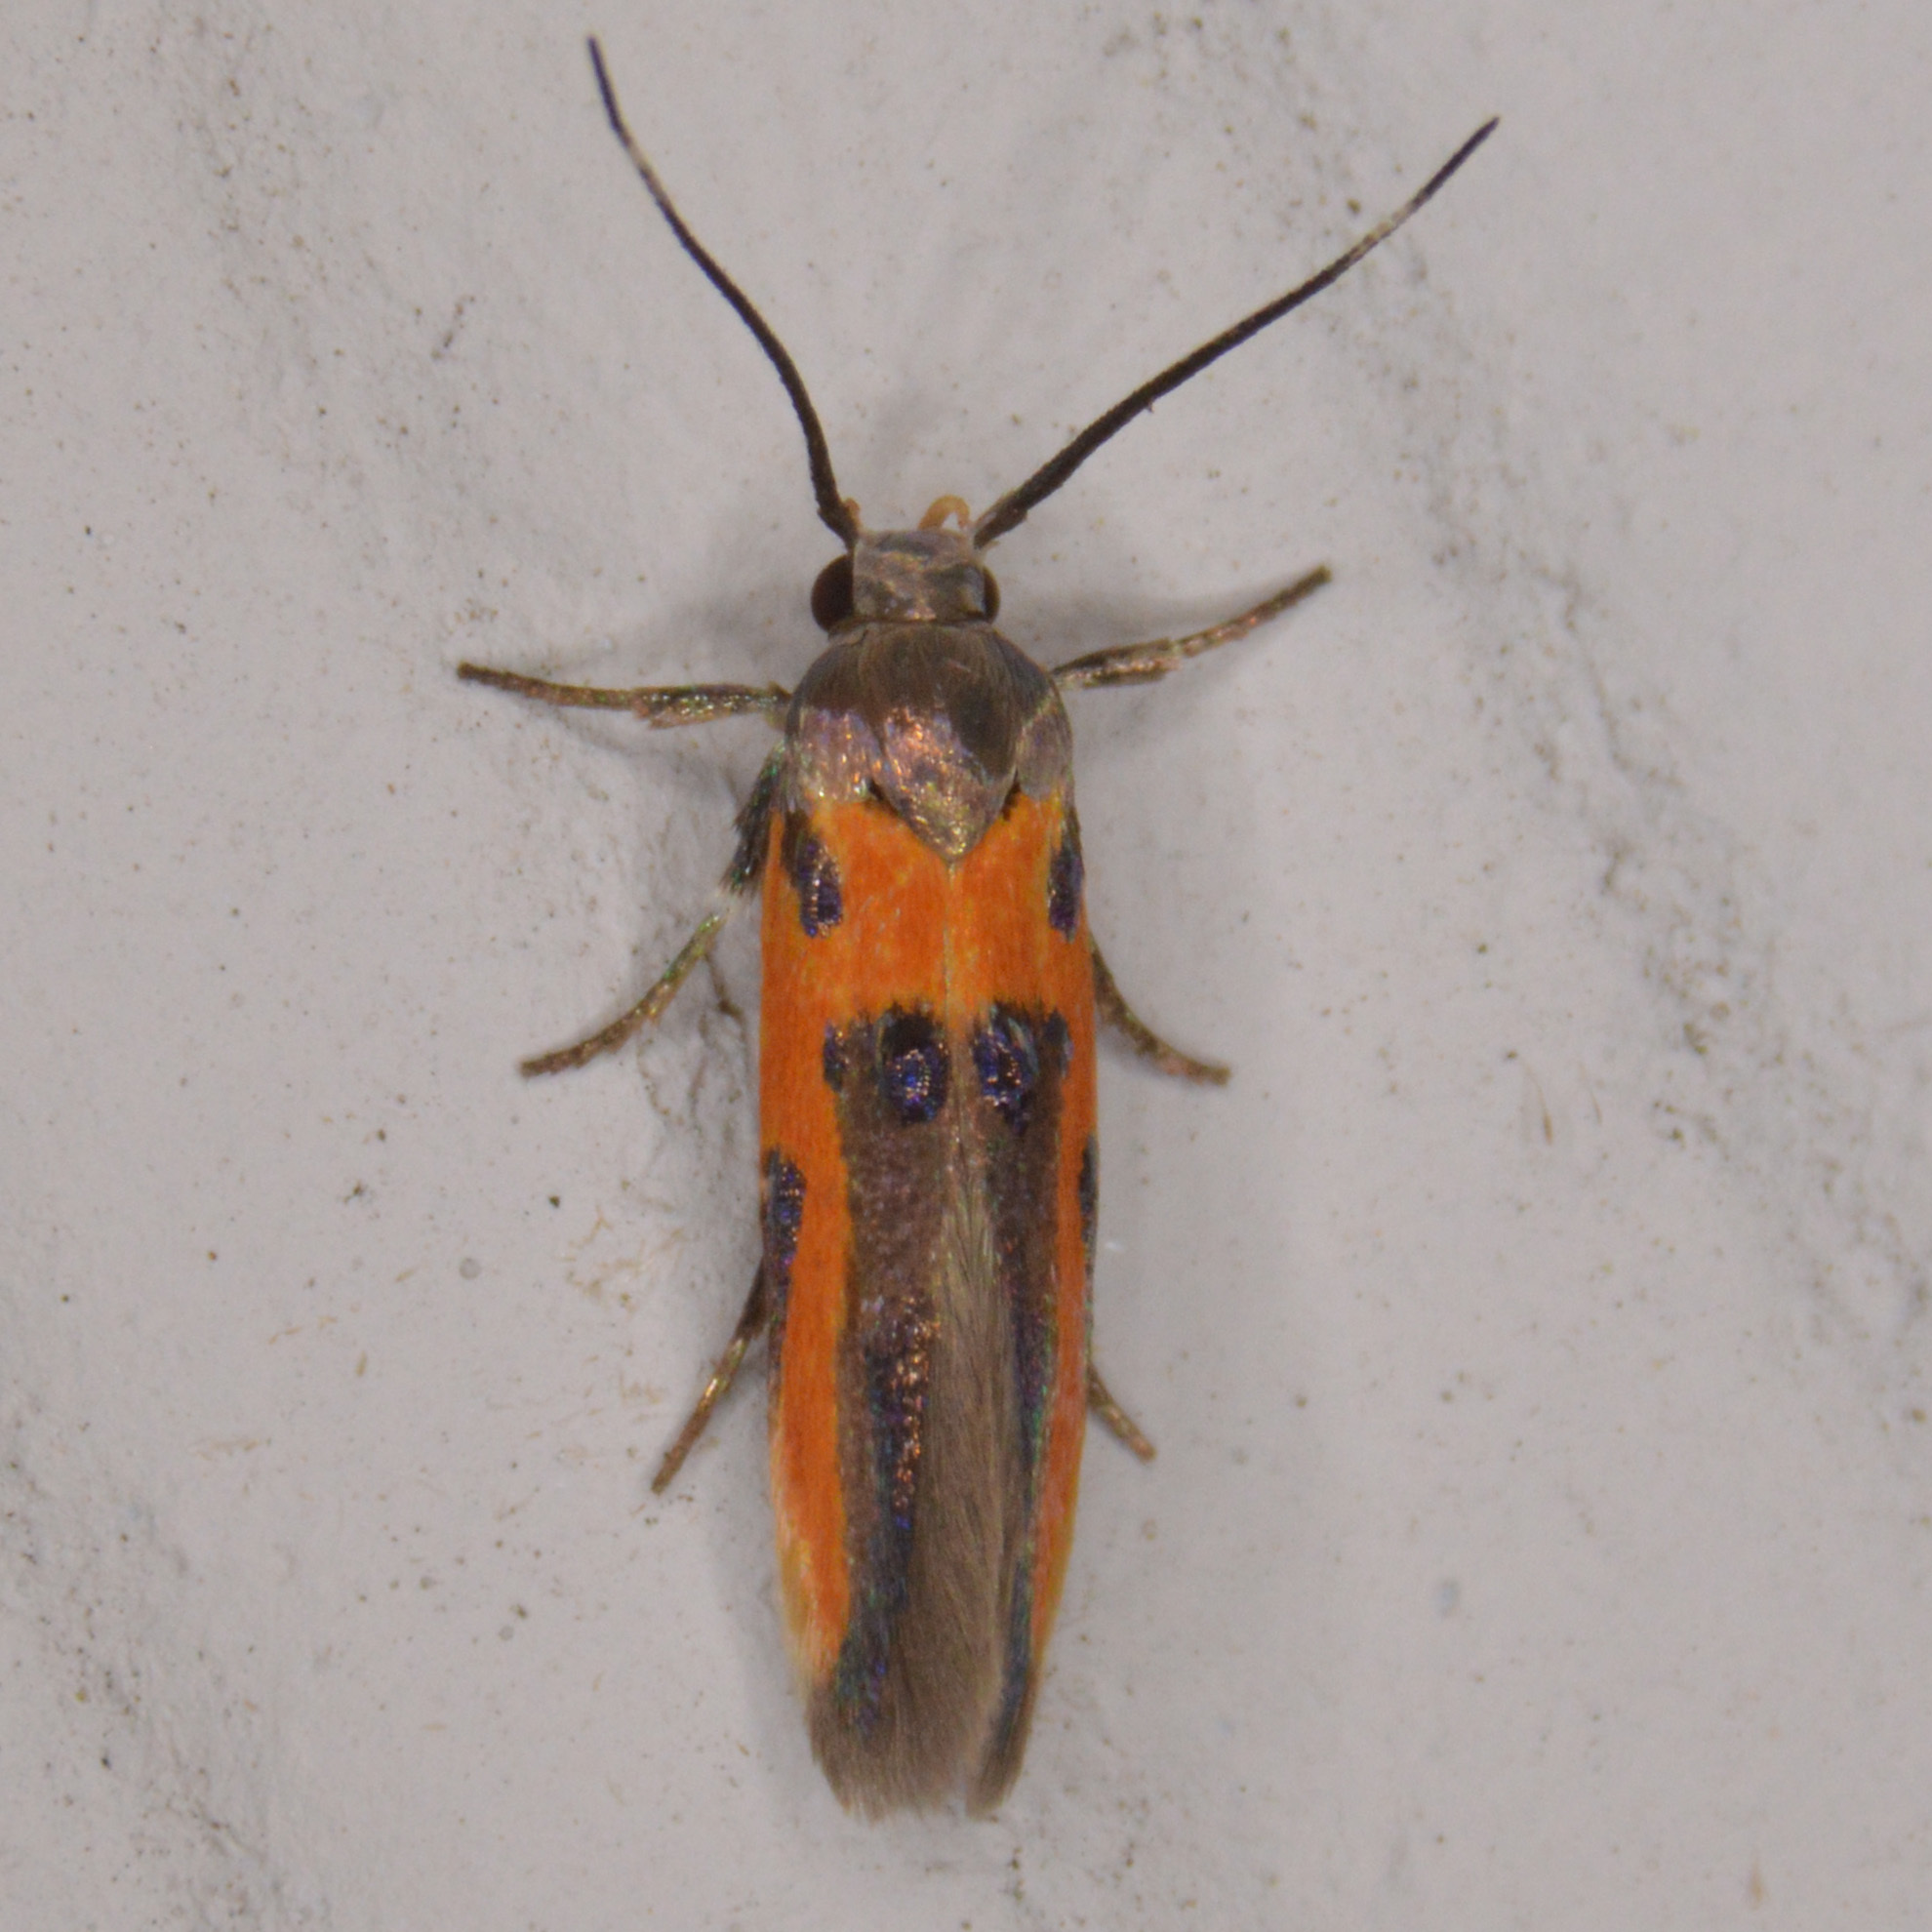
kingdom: Animalia
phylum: Arthropoda
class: Insecta
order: Lepidoptera
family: Cosmopterigidae
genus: Euclemensia
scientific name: Euclemensia bassettella
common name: Kermes scale moth
